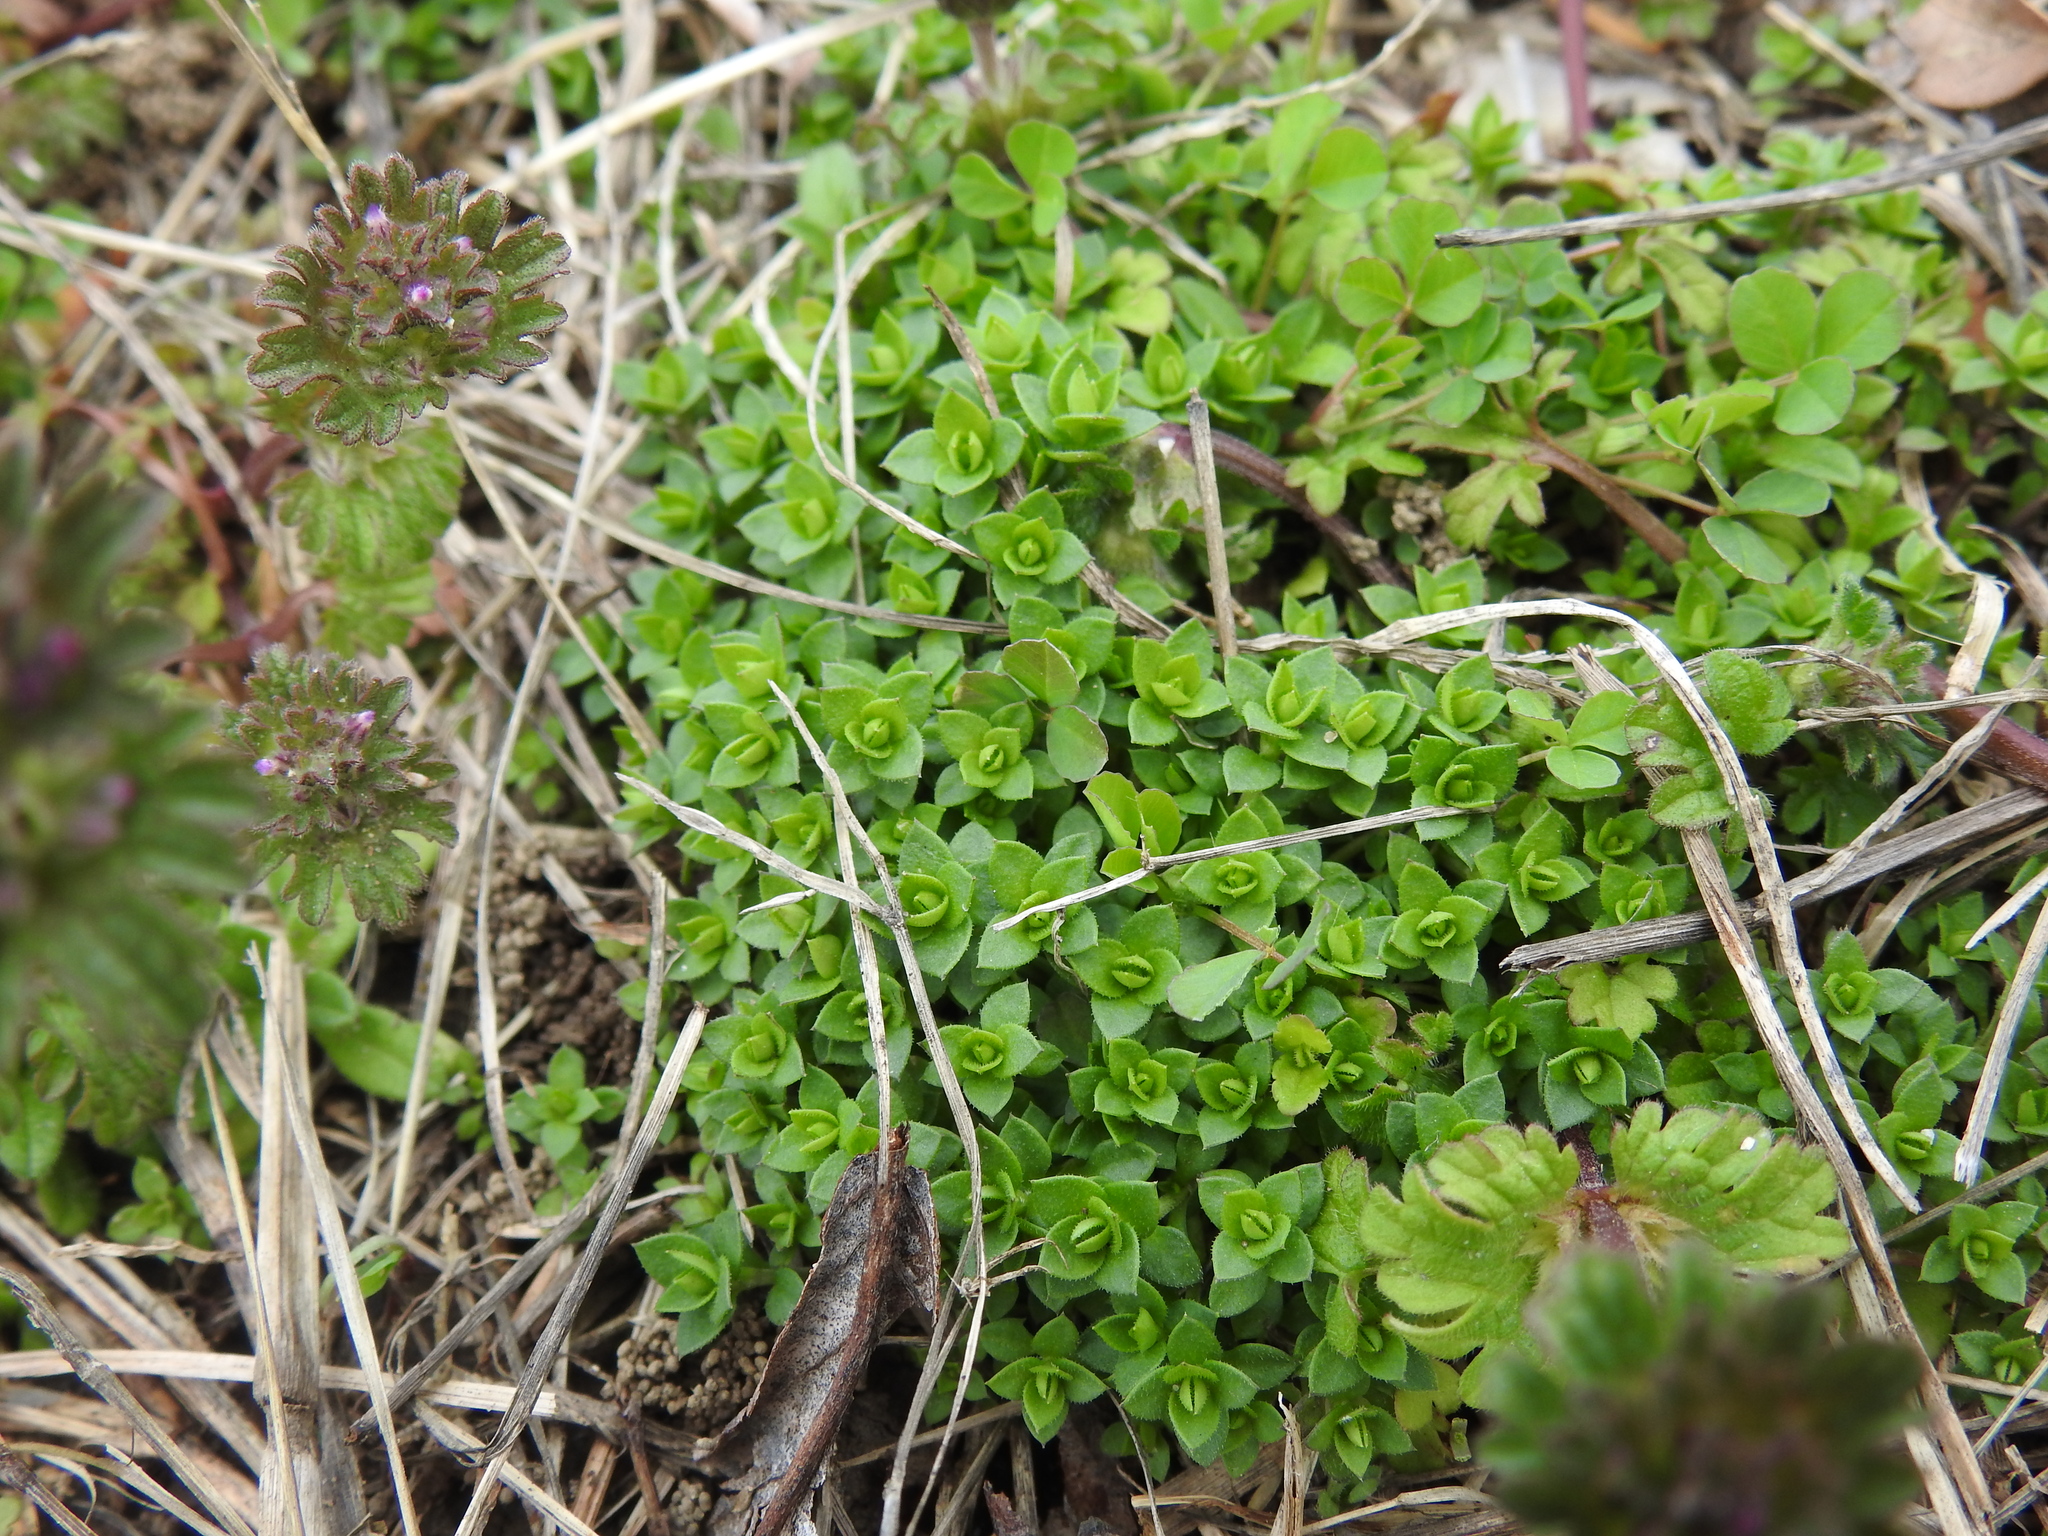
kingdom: Plantae
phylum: Tracheophyta
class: Magnoliopsida
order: Caryophyllales
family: Caryophyllaceae
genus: Arenaria
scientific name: Arenaria serpyllifolia
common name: Thyme-leaved sandwort
